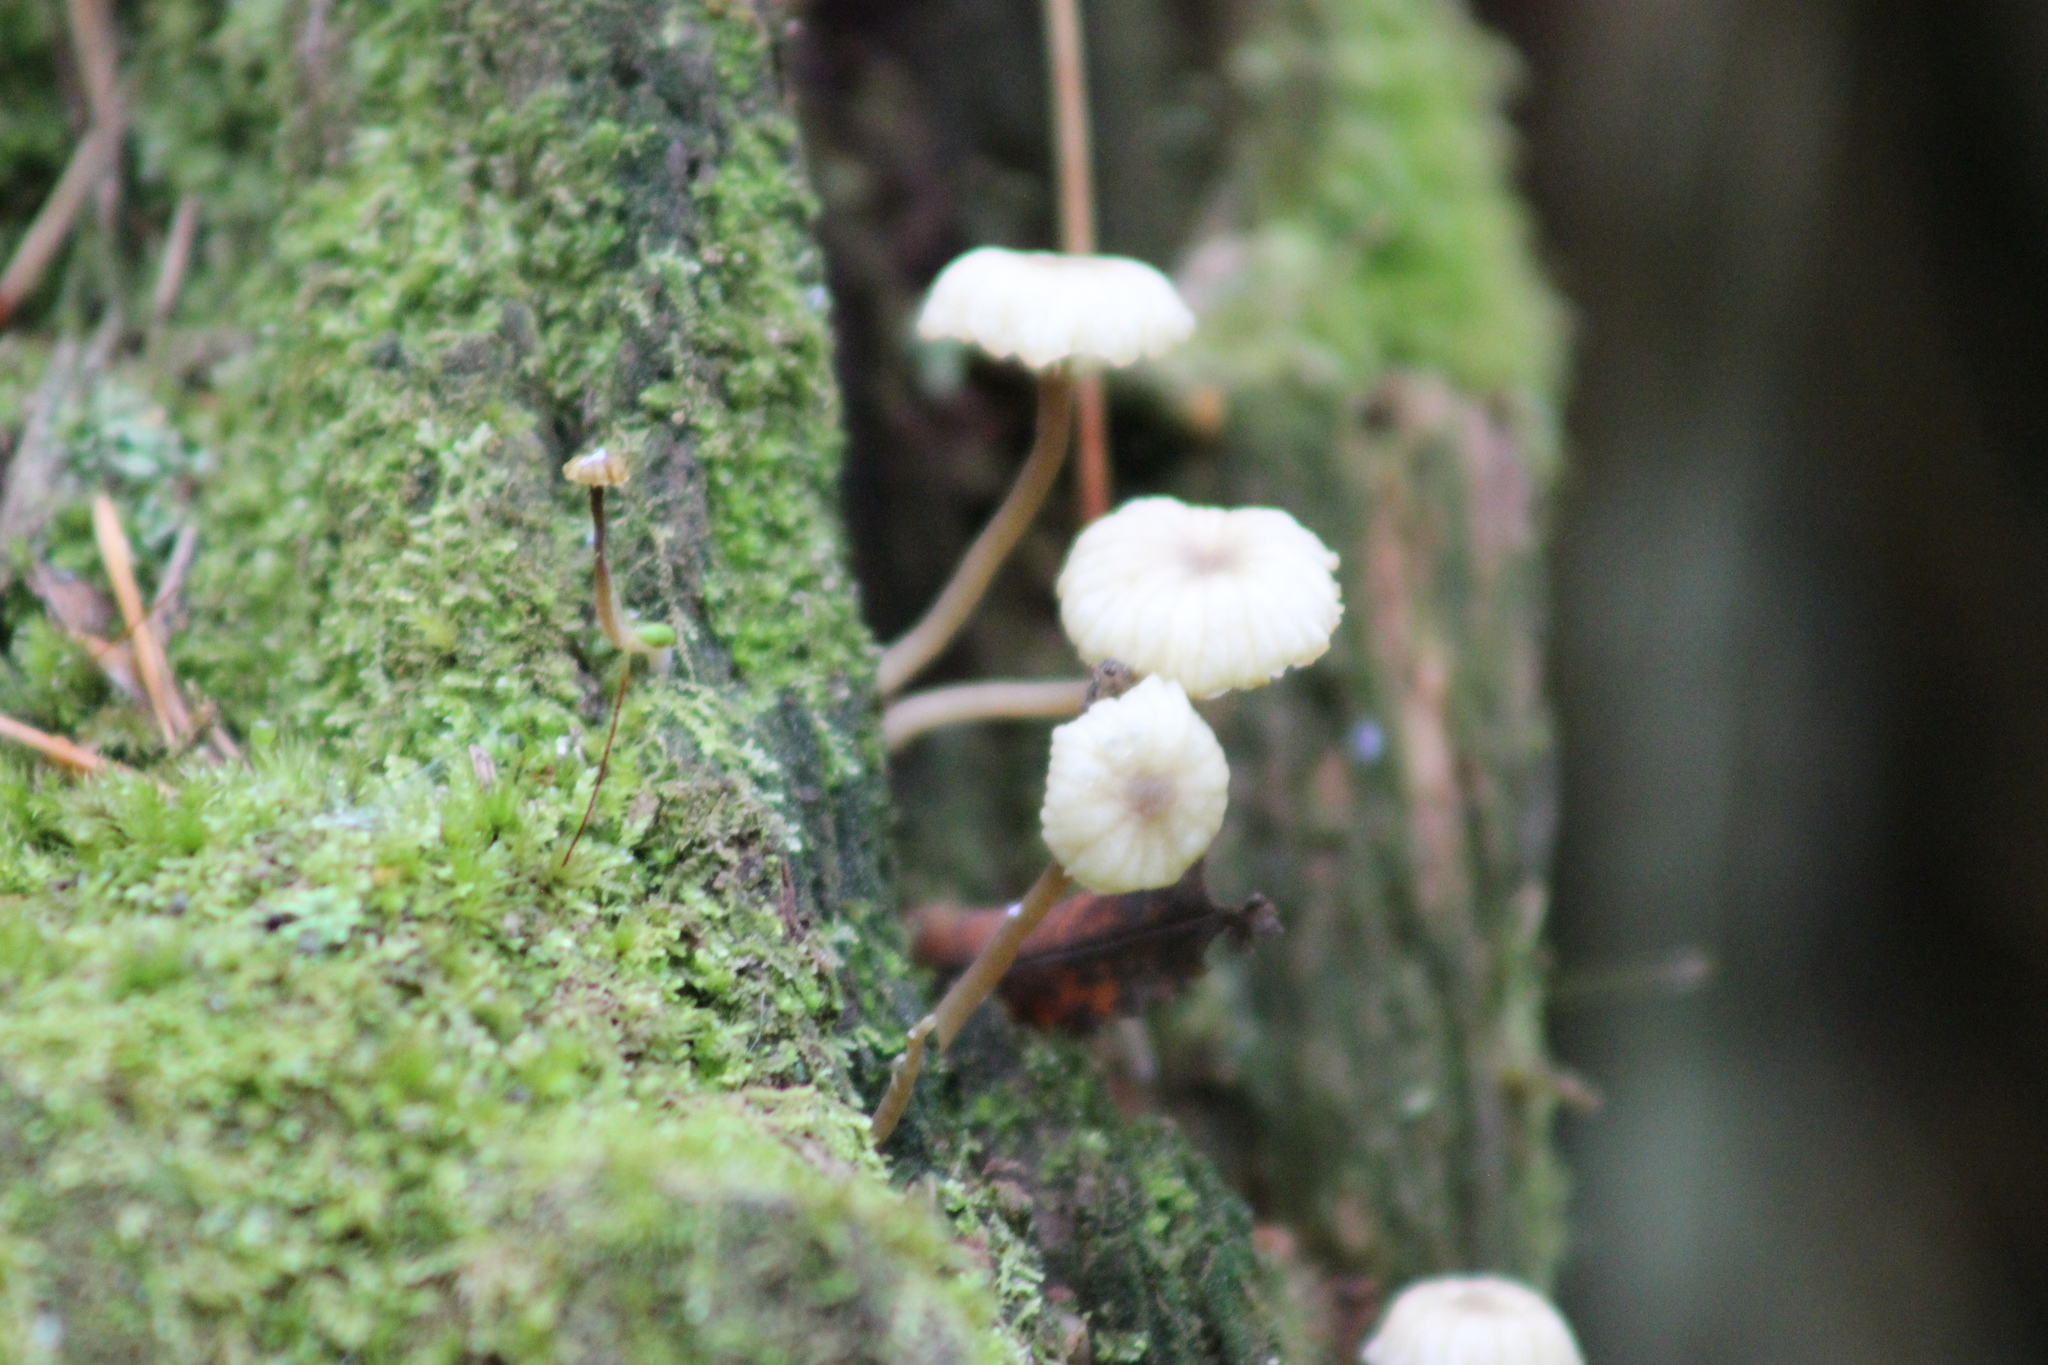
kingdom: Fungi
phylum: Basidiomycota
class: Agaricomycetes
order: Agaricales
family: Hygrophoraceae
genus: Lichenomphalia
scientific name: Lichenomphalia
